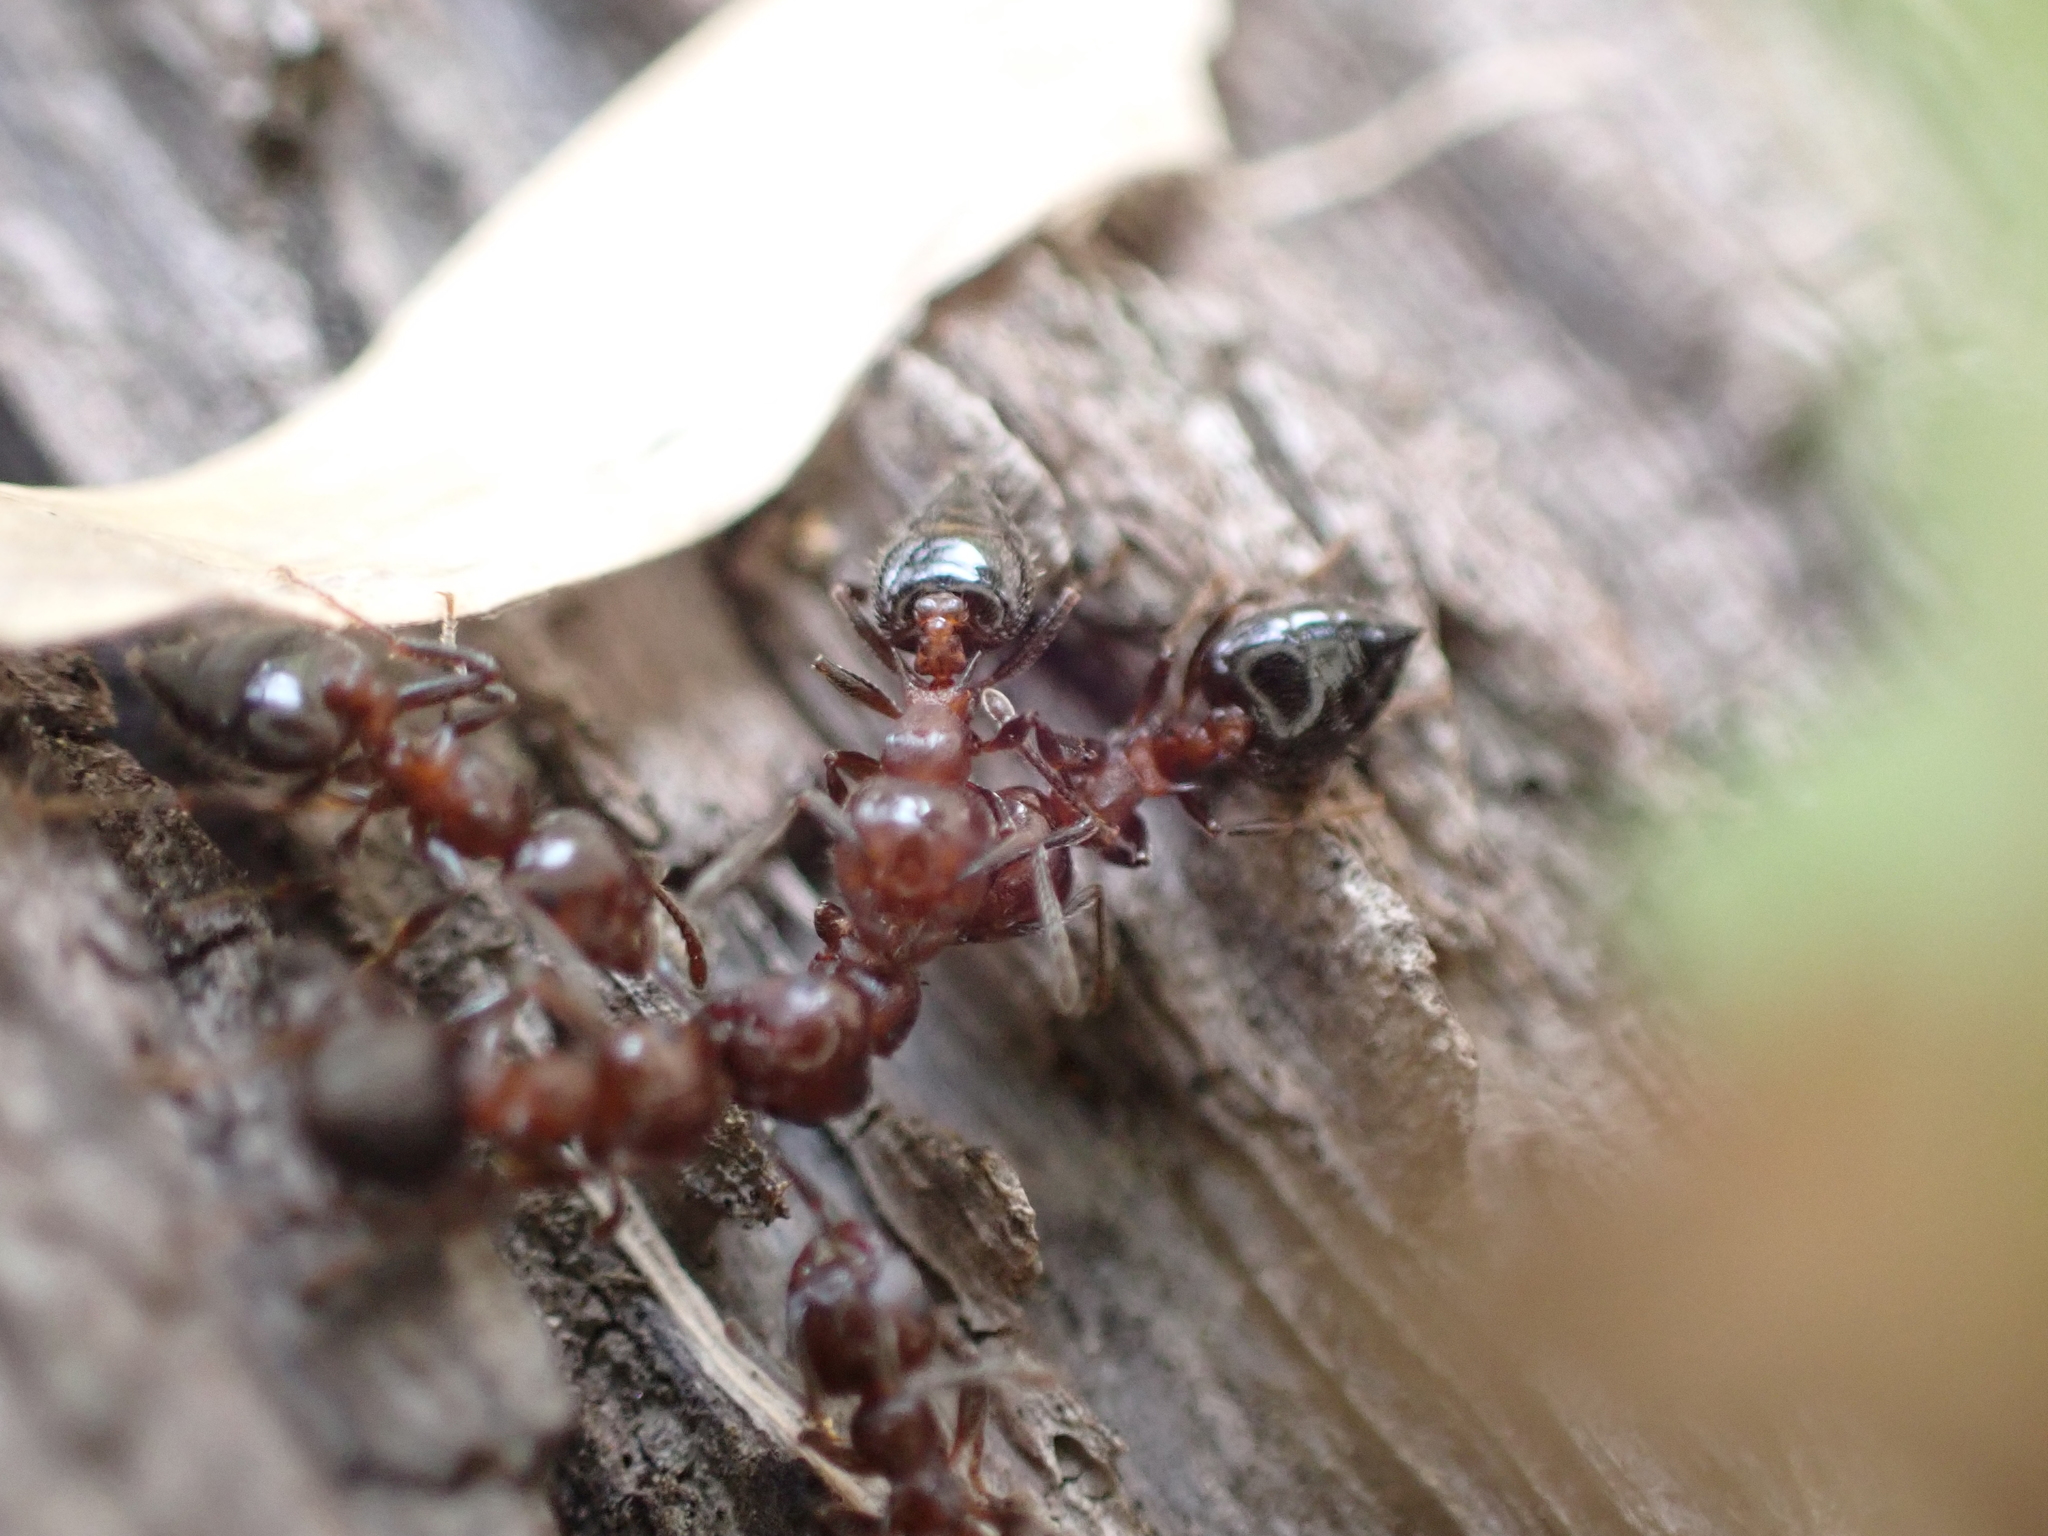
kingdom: Animalia
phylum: Arthropoda
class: Insecta
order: Hymenoptera
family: Formicidae
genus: Crematogaster
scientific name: Crematogaster pilosa
